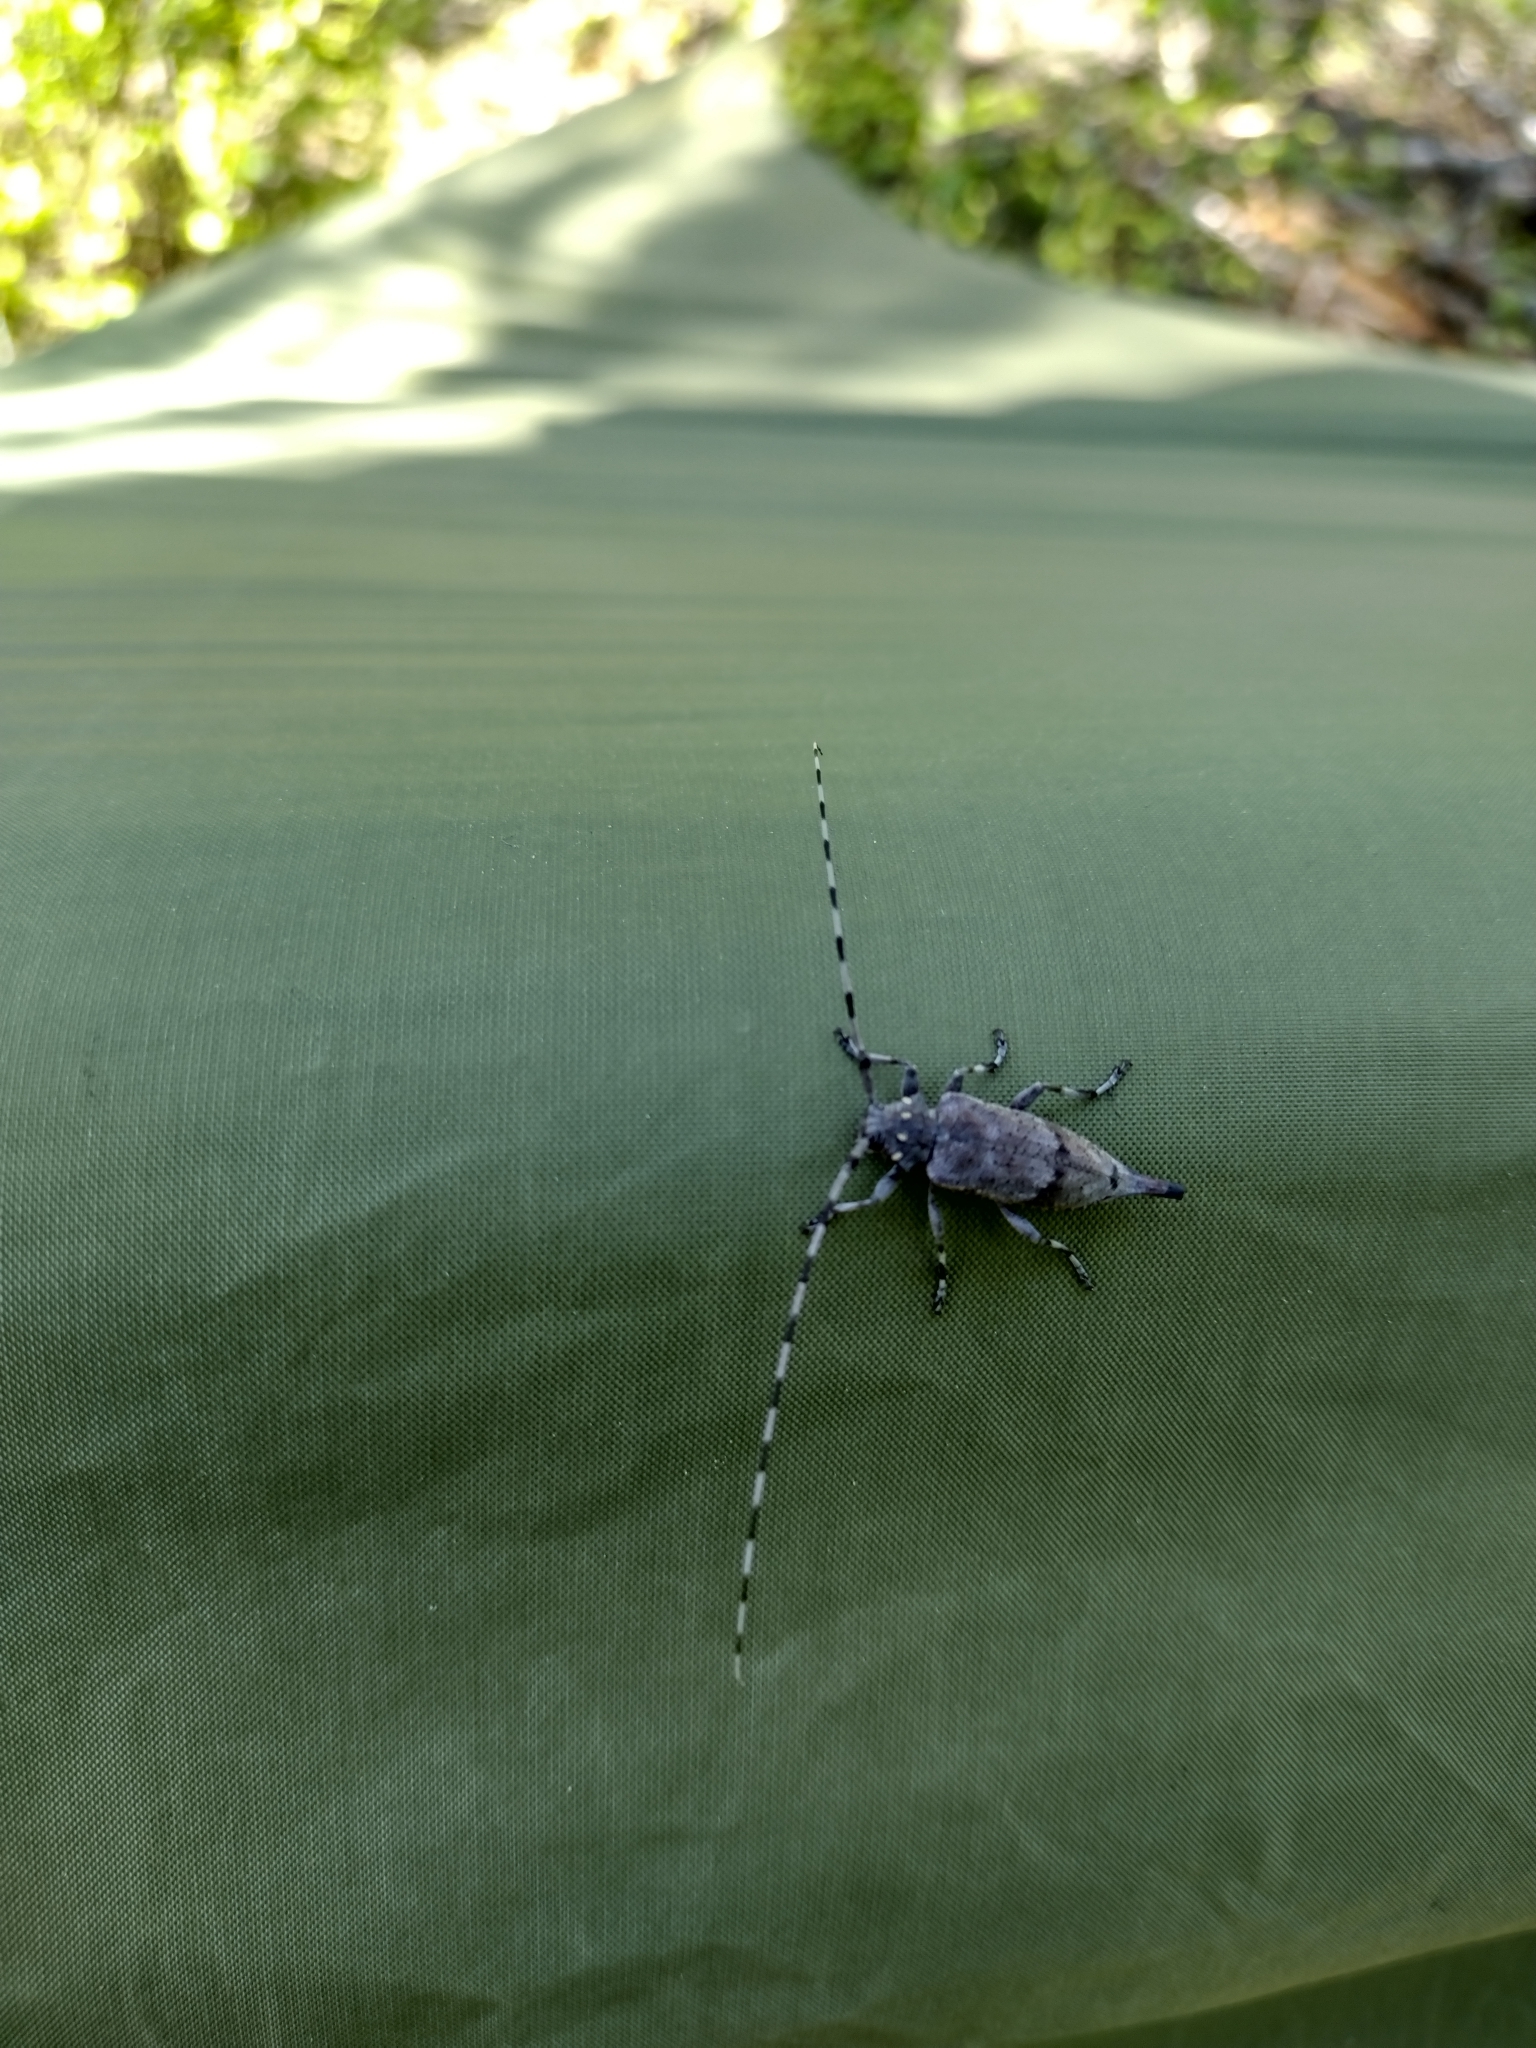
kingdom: Animalia
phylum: Arthropoda
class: Insecta
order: Coleoptera
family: Cerambycidae
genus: Acanthocinus
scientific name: Acanthocinus aedilis
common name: Timberman beetle
